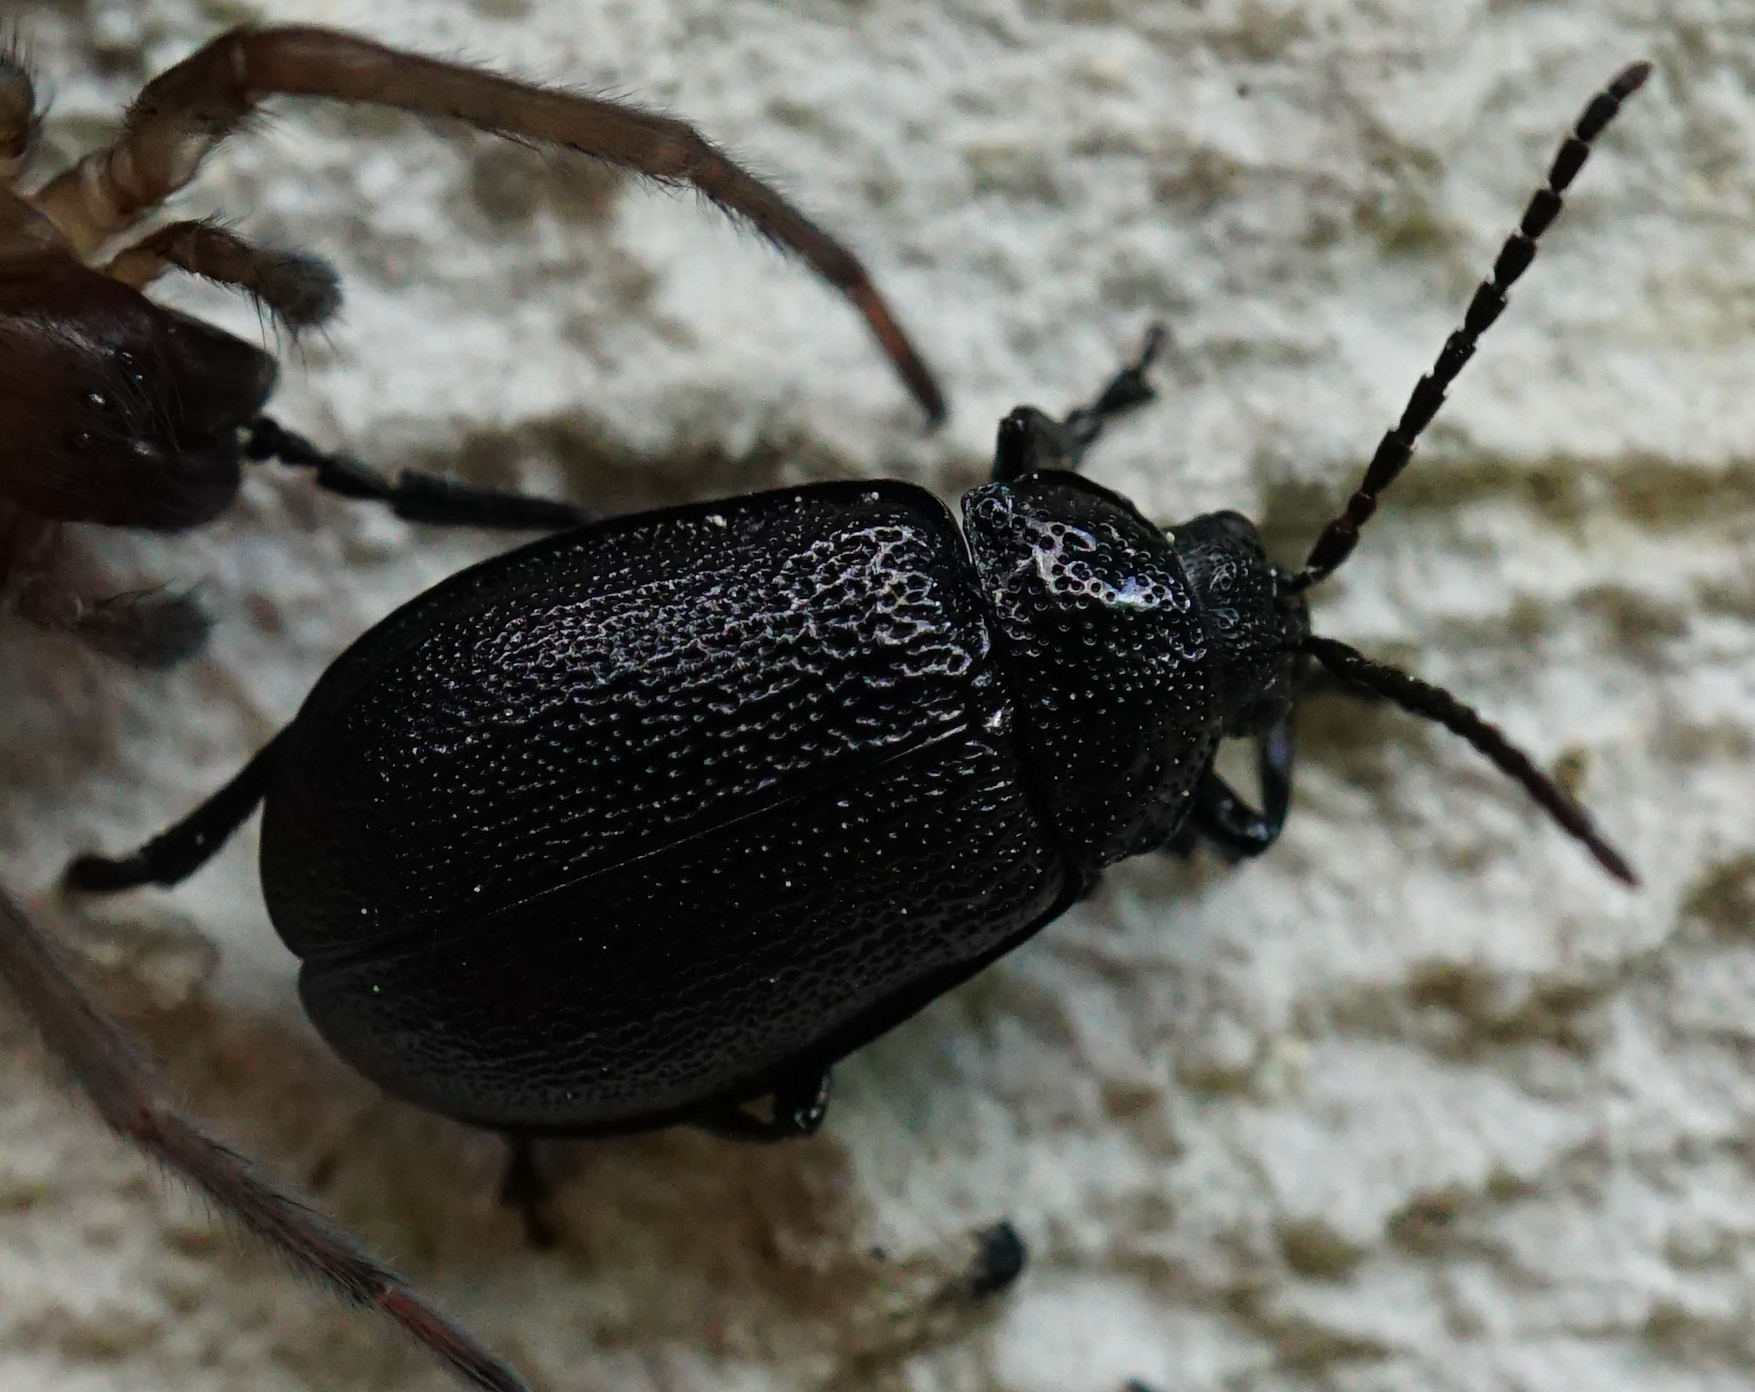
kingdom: Animalia
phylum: Arthropoda
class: Insecta
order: Coleoptera
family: Chrysomelidae
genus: Galeruca
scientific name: Galeruca tanaceti
